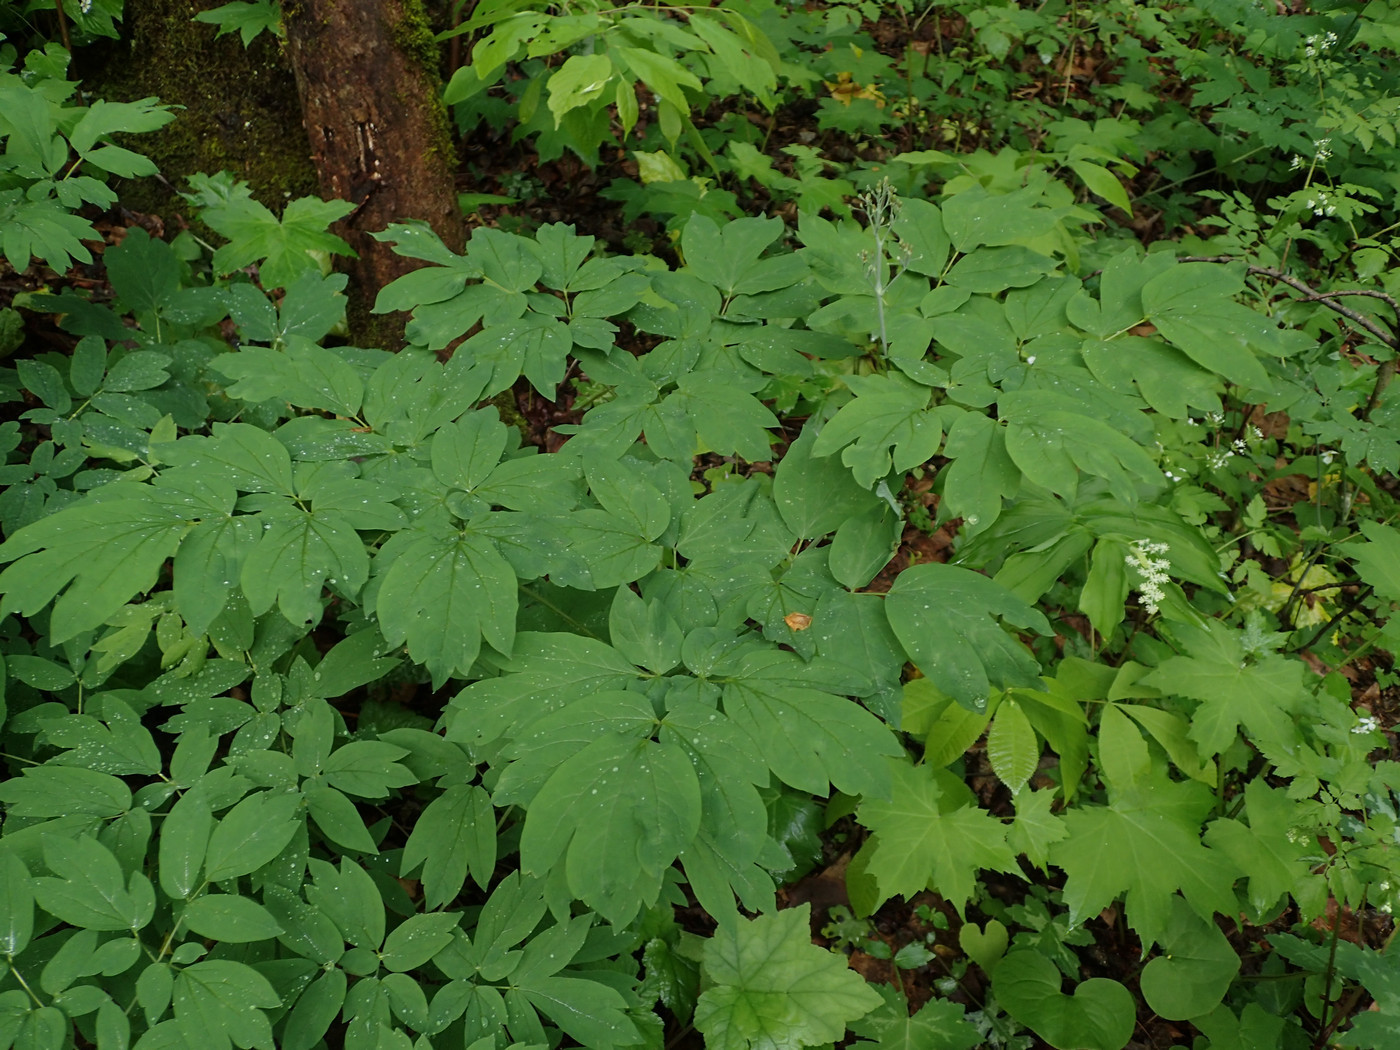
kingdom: Plantae
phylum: Tracheophyta
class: Magnoliopsida
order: Ranunculales
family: Berberidaceae
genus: Caulophyllum
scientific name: Caulophyllum thalictroides
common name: Blue cohosh
